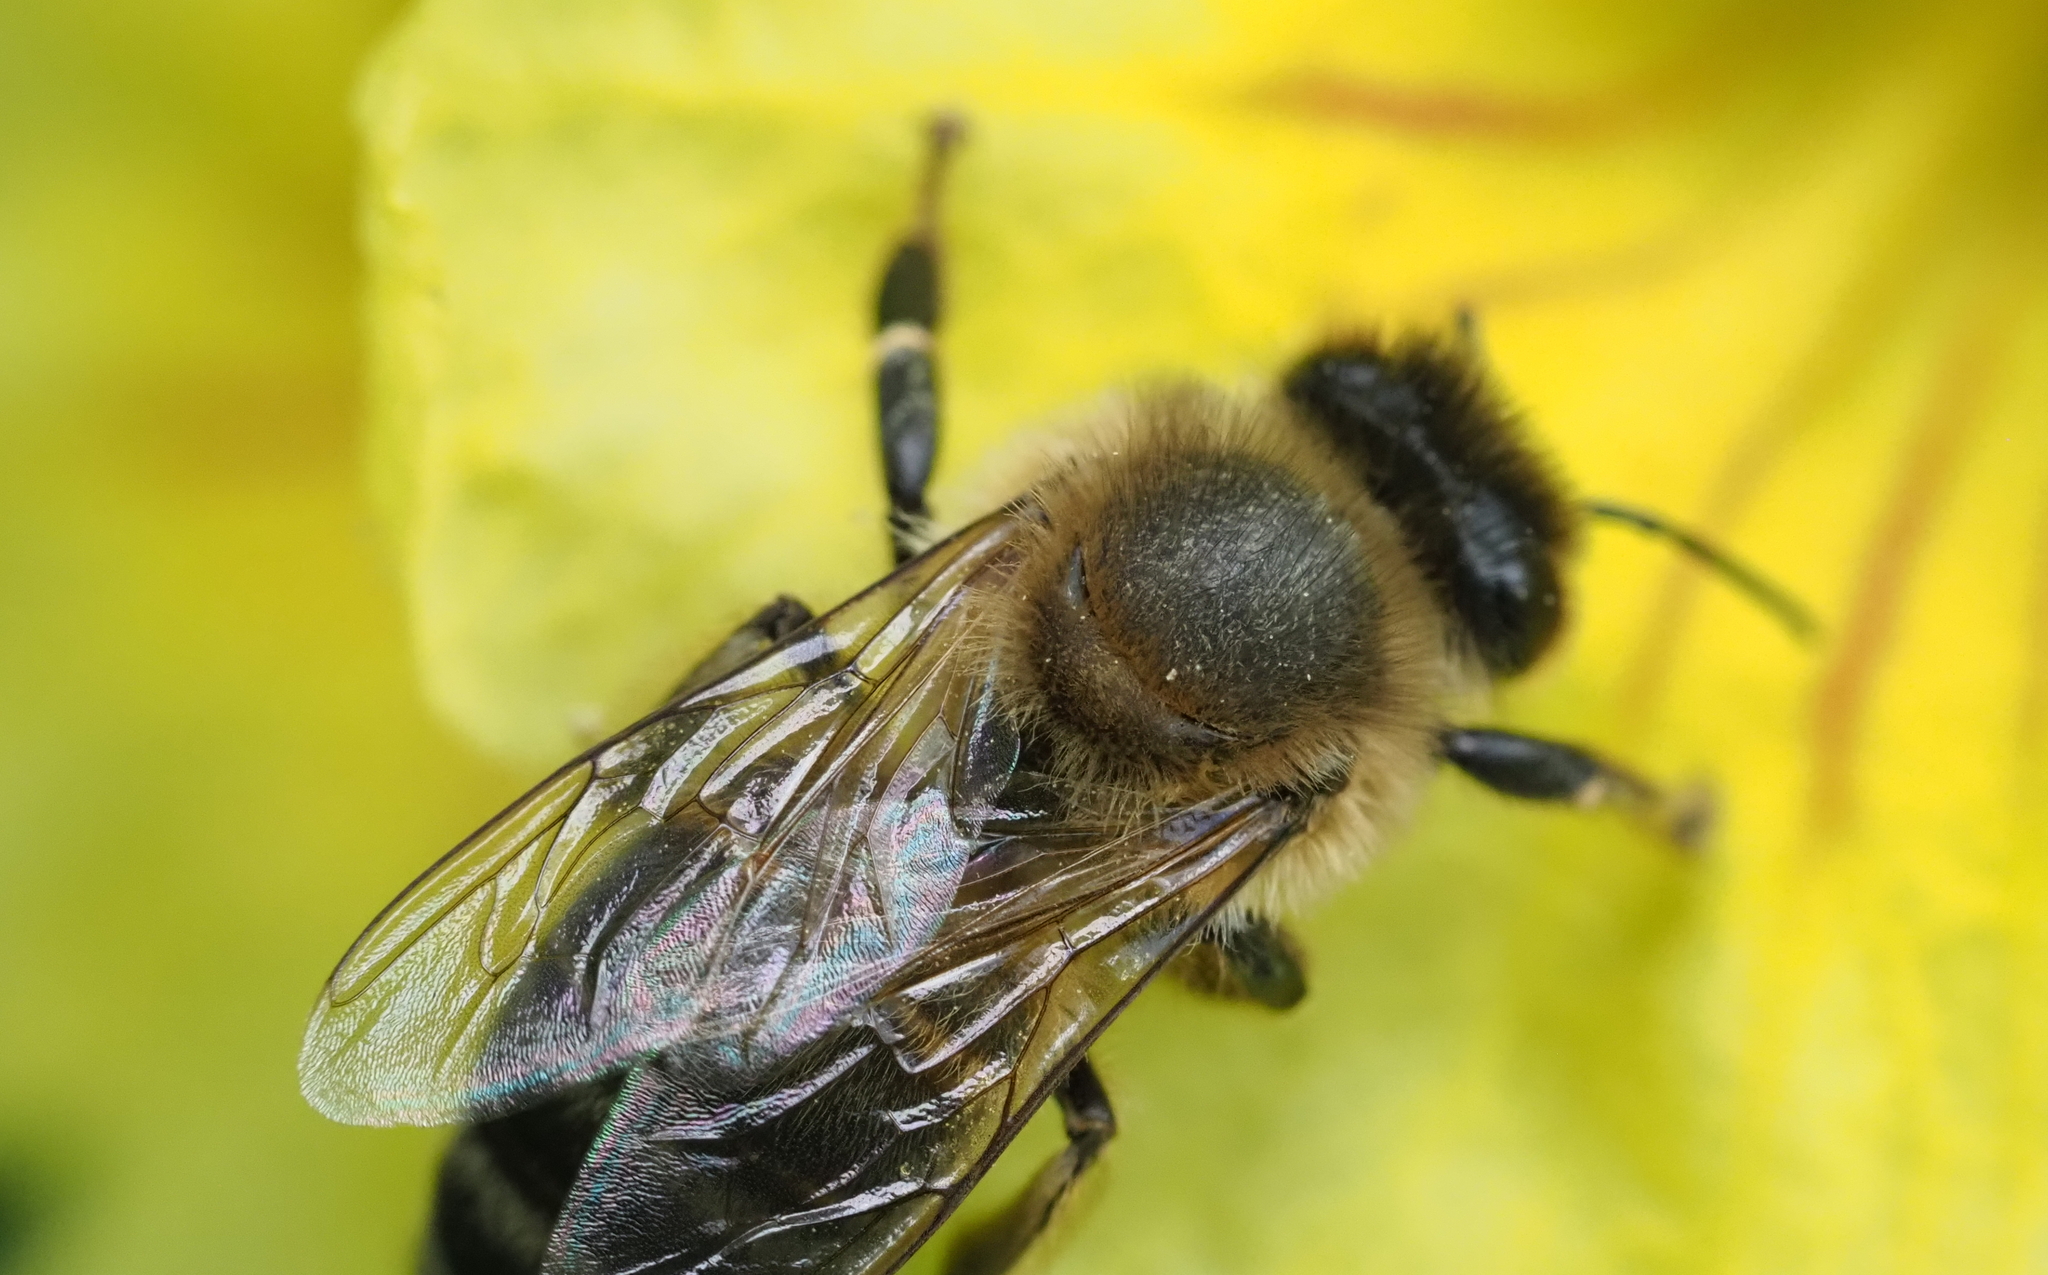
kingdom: Animalia
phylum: Arthropoda
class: Insecta
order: Hymenoptera
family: Apidae
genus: Apis
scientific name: Apis mellifera
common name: Honey bee
